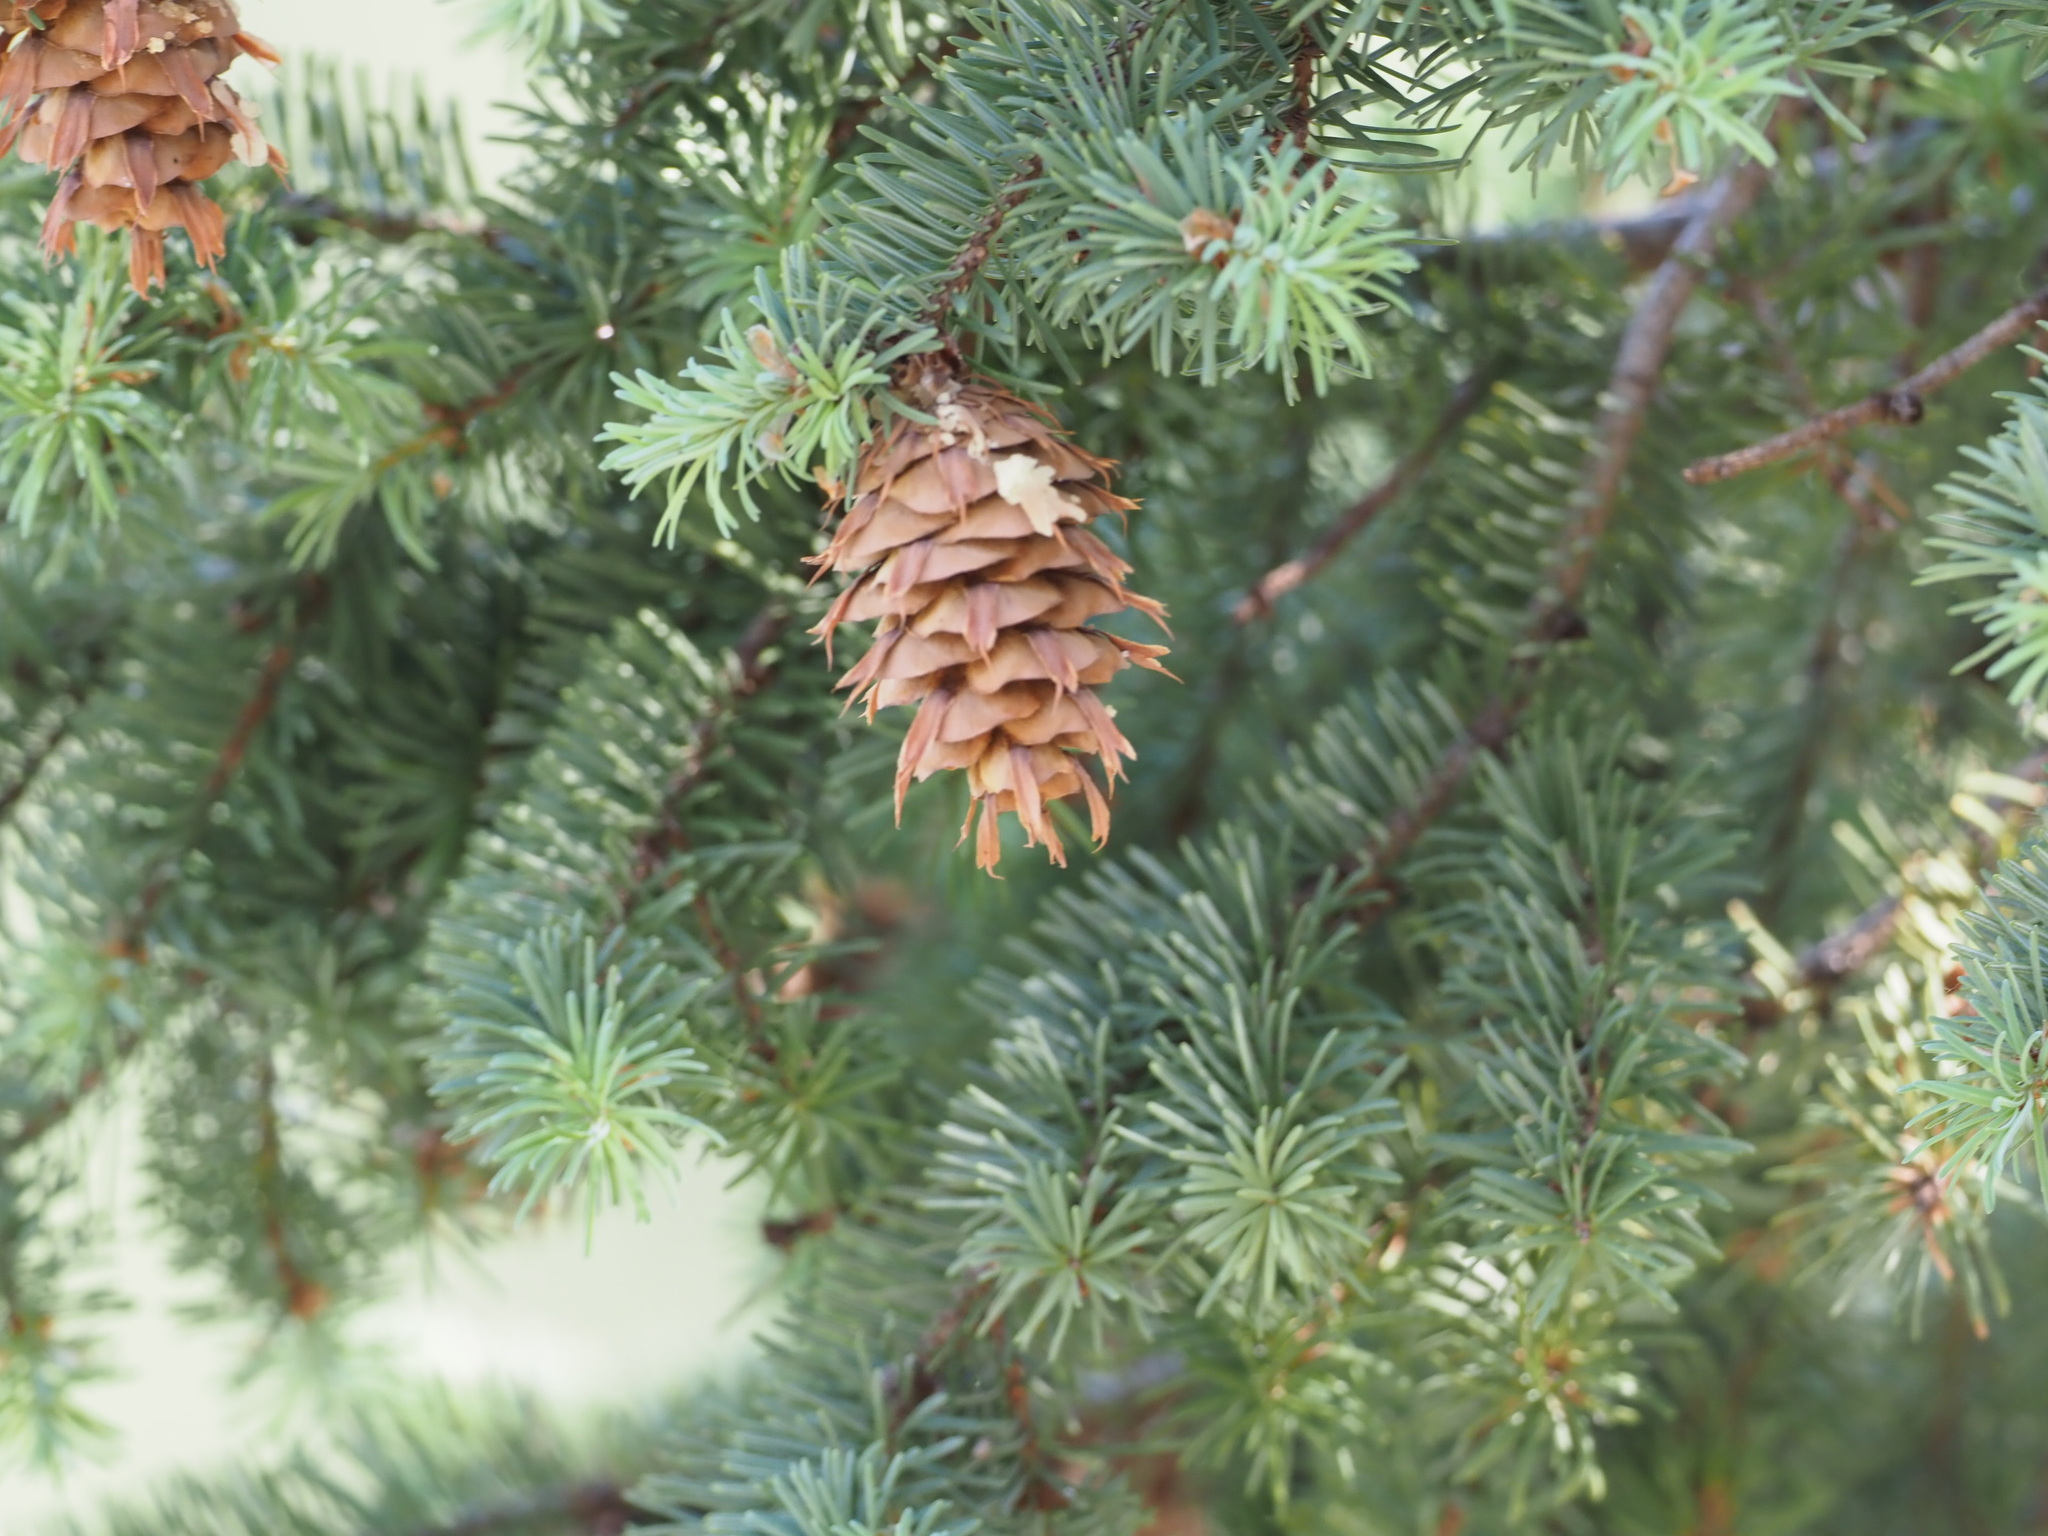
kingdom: Plantae
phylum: Tracheophyta
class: Pinopsida
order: Pinales
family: Pinaceae
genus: Pseudotsuga
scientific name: Pseudotsuga menziesii
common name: Douglas fir
